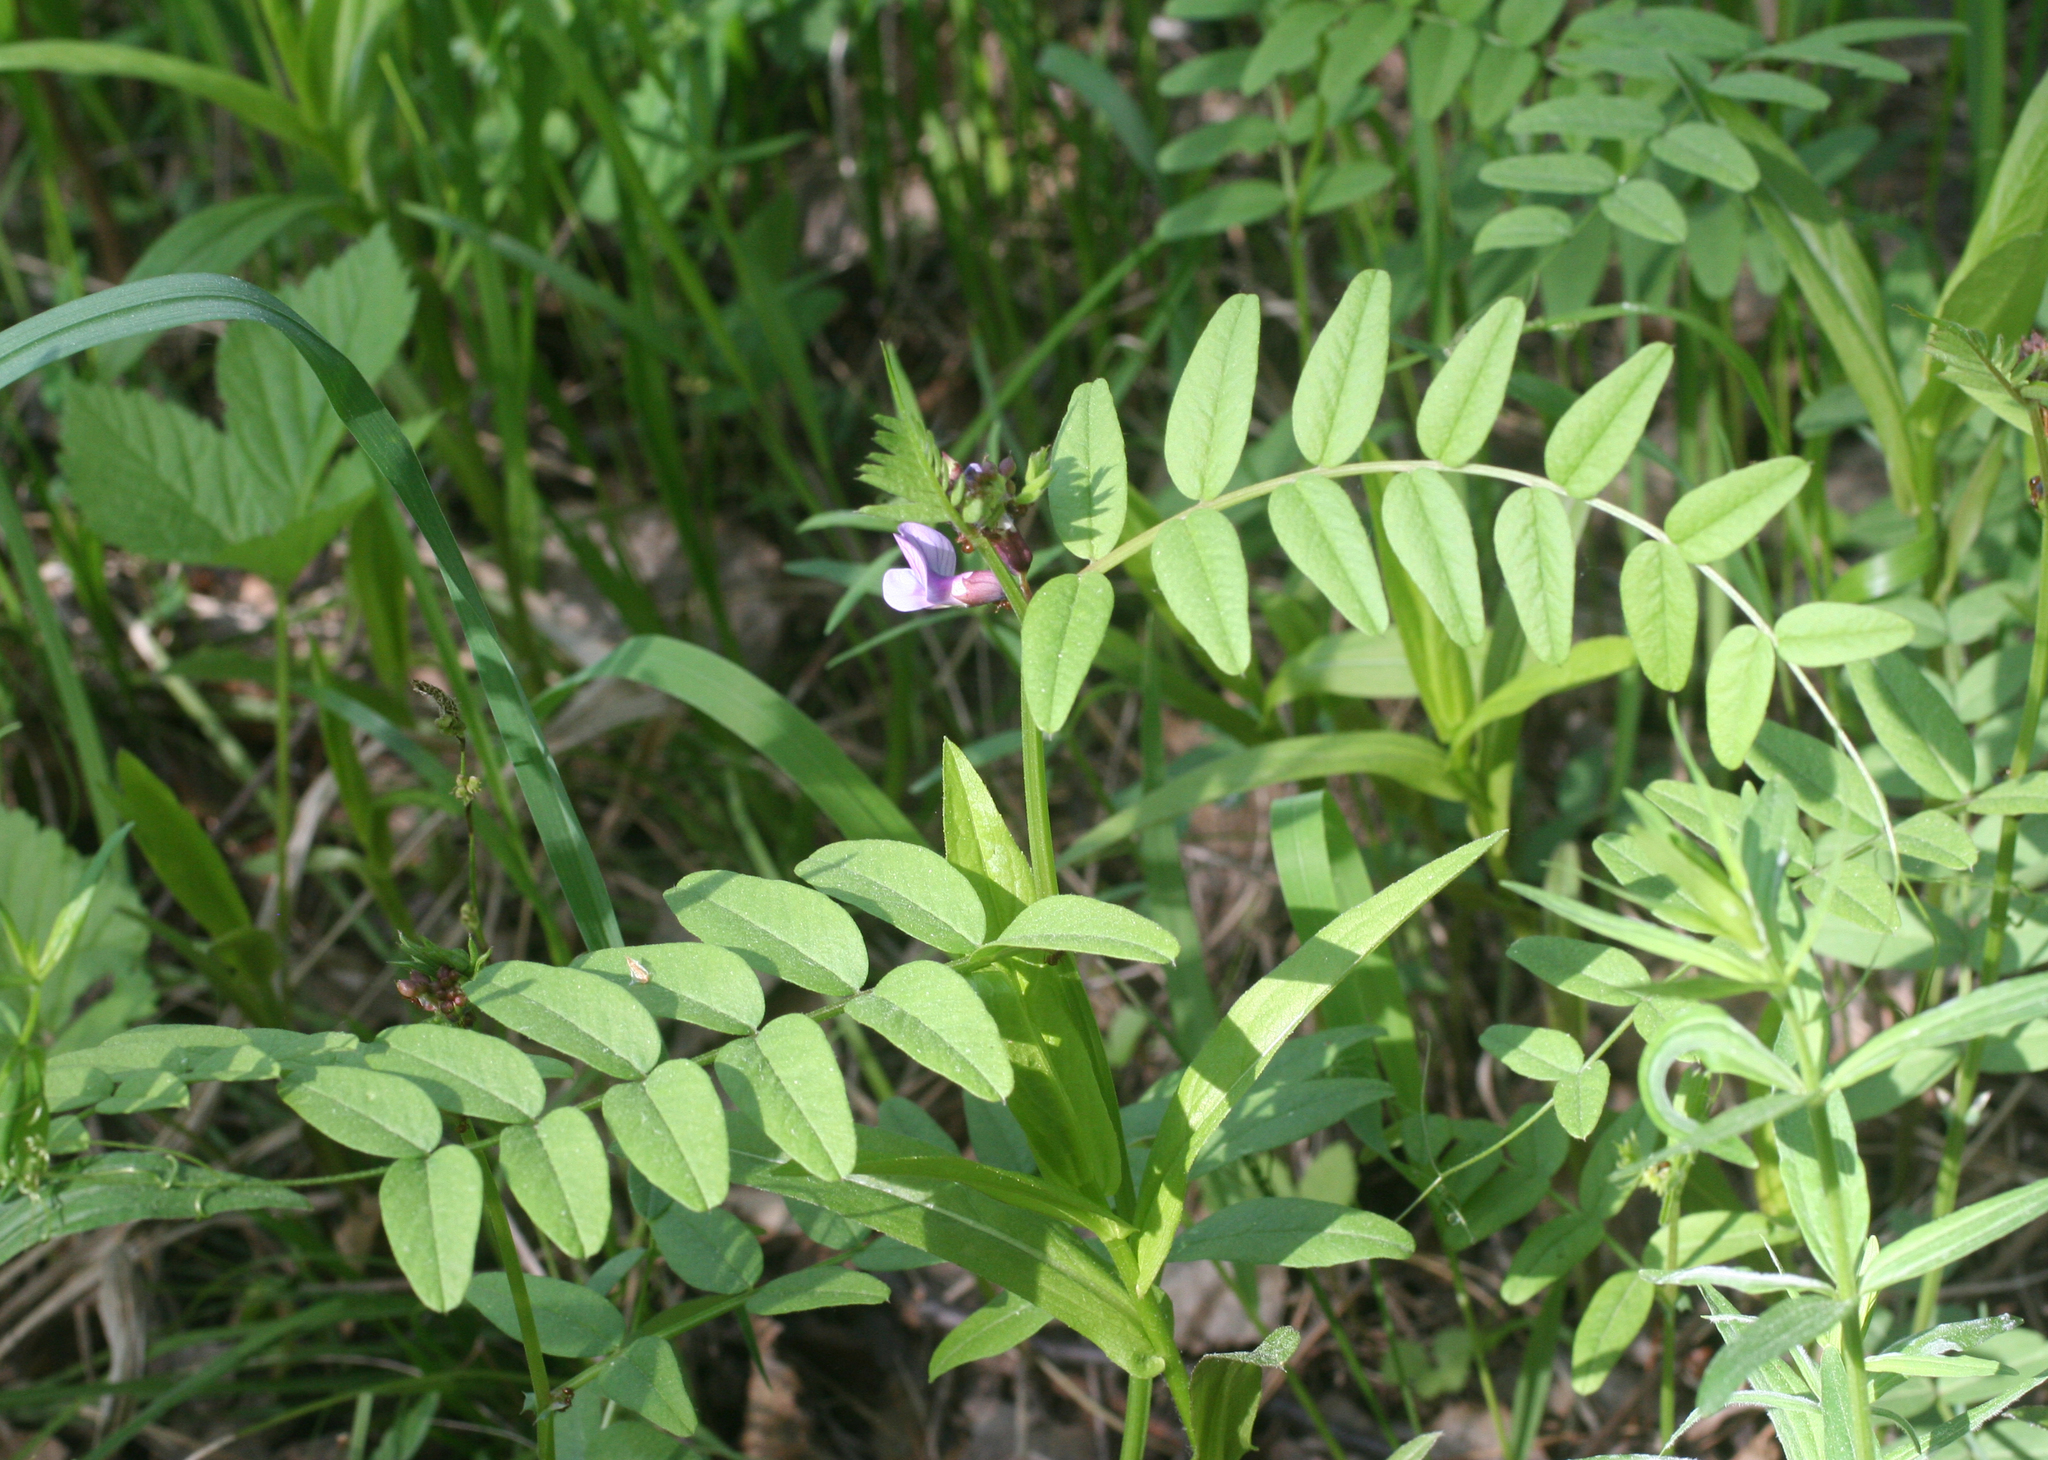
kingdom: Plantae
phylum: Tracheophyta
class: Magnoliopsida
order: Fabales
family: Fabaceae
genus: Vicia
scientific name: Vicia sepium
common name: Bush vetch
